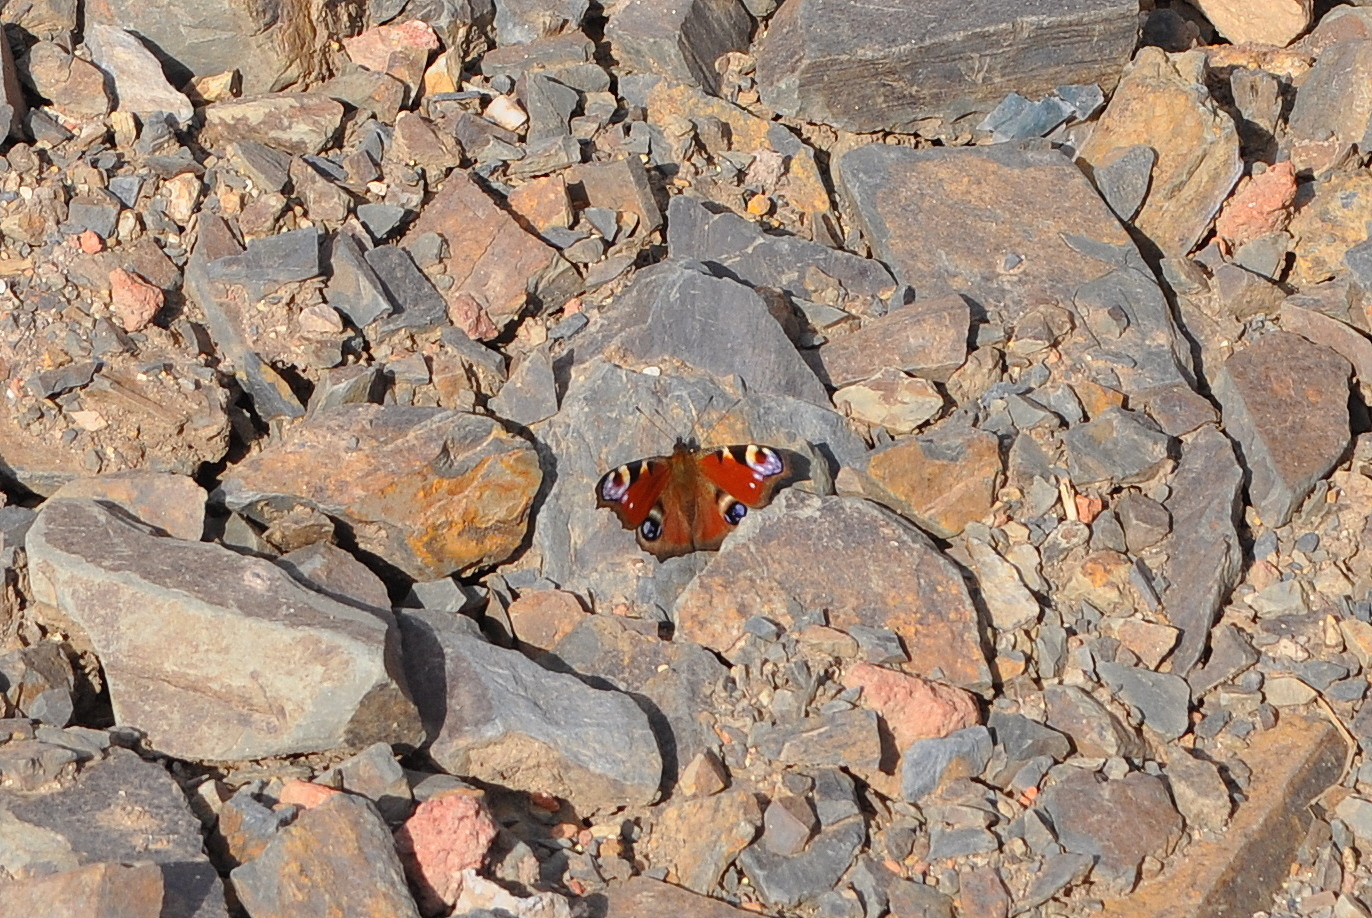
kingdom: Animalia
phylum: Arthropoda
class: Insecta
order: Lepidoptera
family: Nymphalidae
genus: Aglais
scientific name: Aglais io
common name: Peacock
